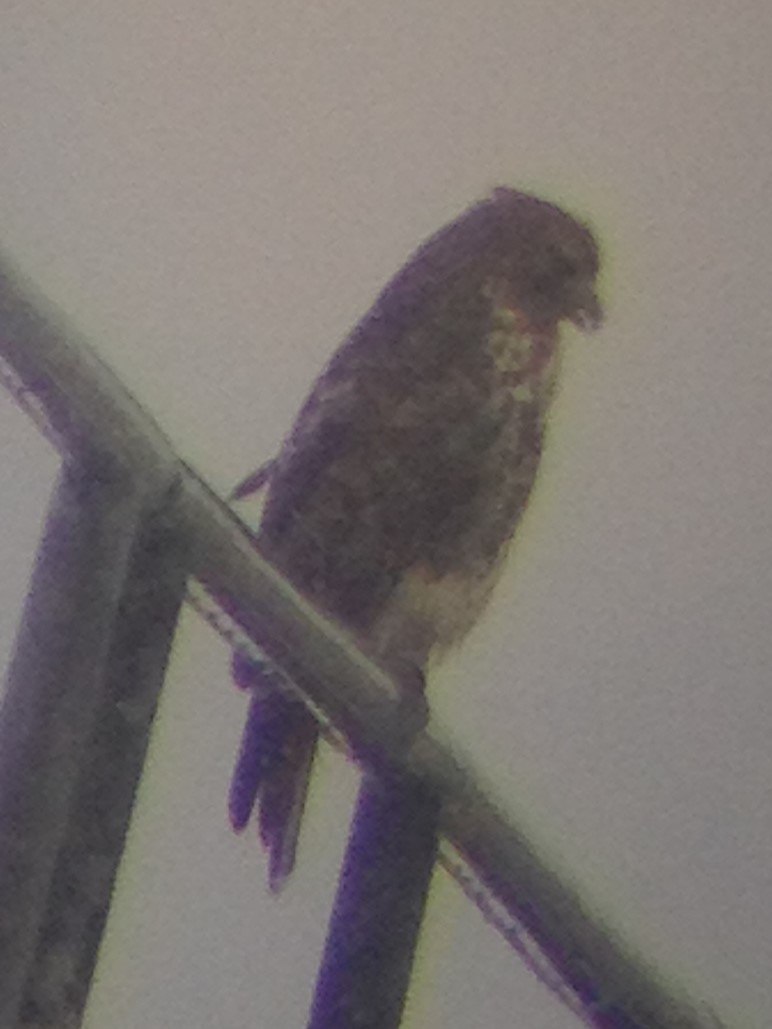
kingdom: Animalia
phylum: Chordata
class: Aves
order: Accipitriformes
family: Accipitridae
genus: Buteo
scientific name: Buteo jamaicensis
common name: Red-tailed hawk
